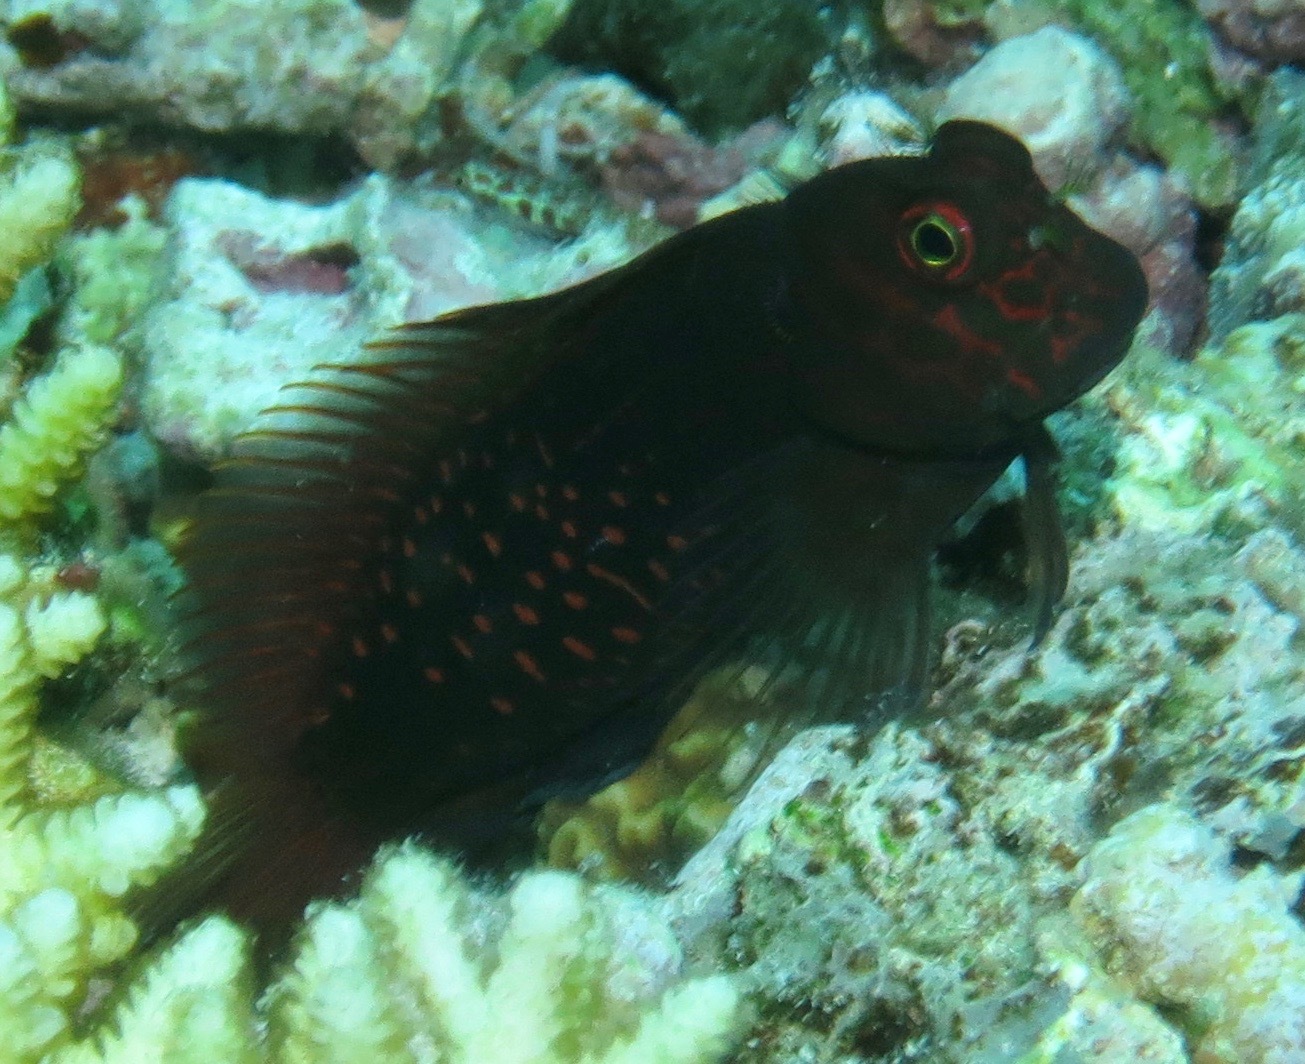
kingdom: Animalia
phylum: Chordata
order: Perciformes
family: Blenniidae
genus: Cirripectes
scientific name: Cirripectes stigmaticus
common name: Red-streaked blenny
